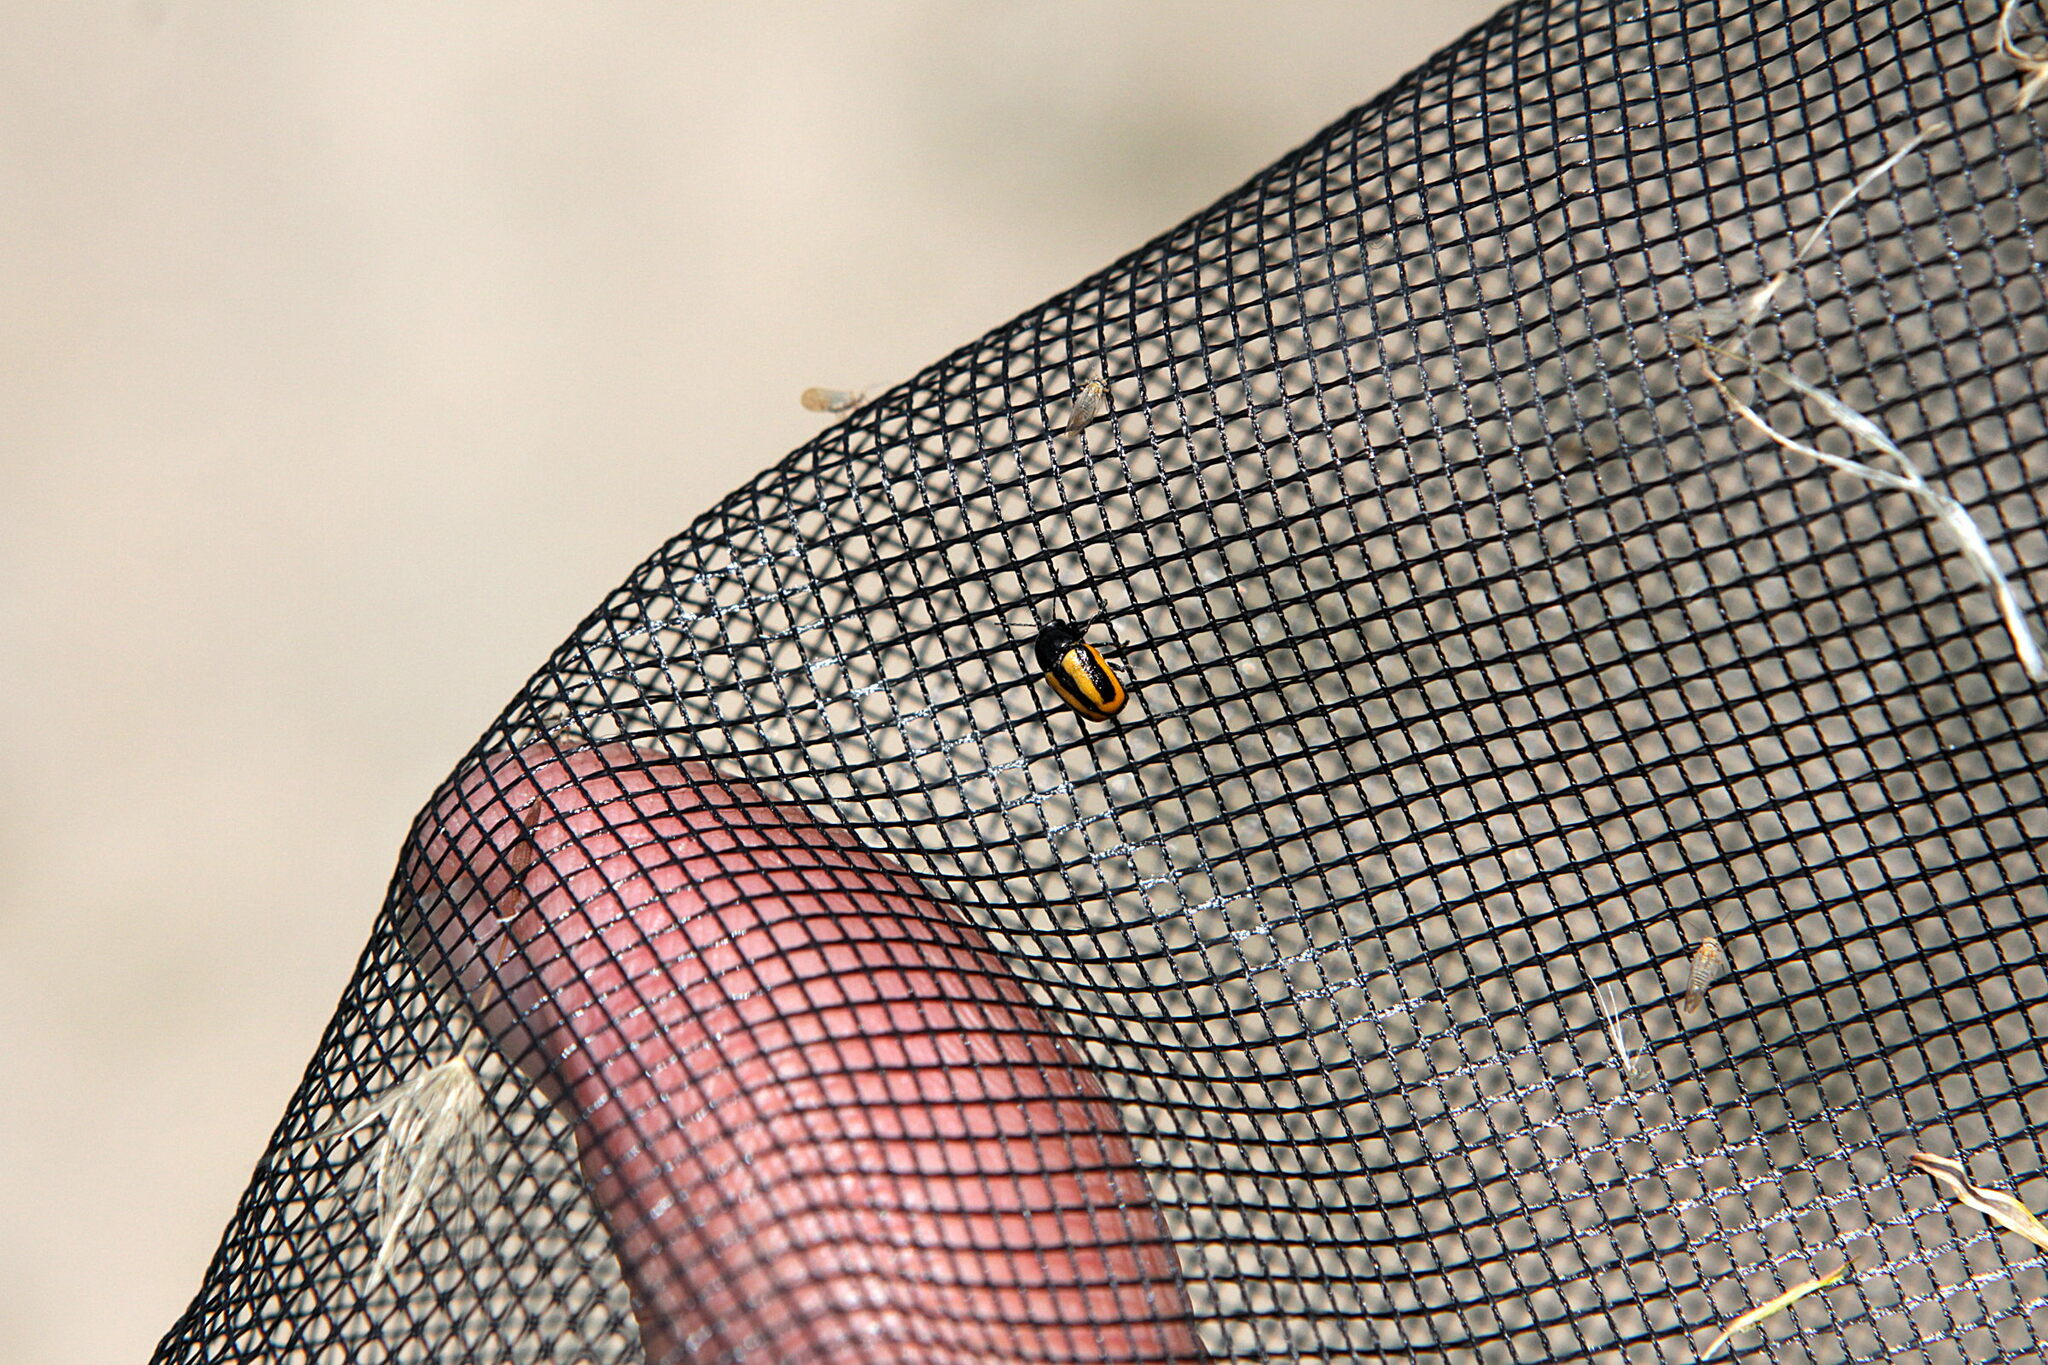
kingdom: Animalia
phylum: Arthropoda
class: Insecta
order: Coleoptera
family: Chrysomelidae
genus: Acalymma
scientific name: Acalymma vittatum
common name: Striped cucumber beetle
